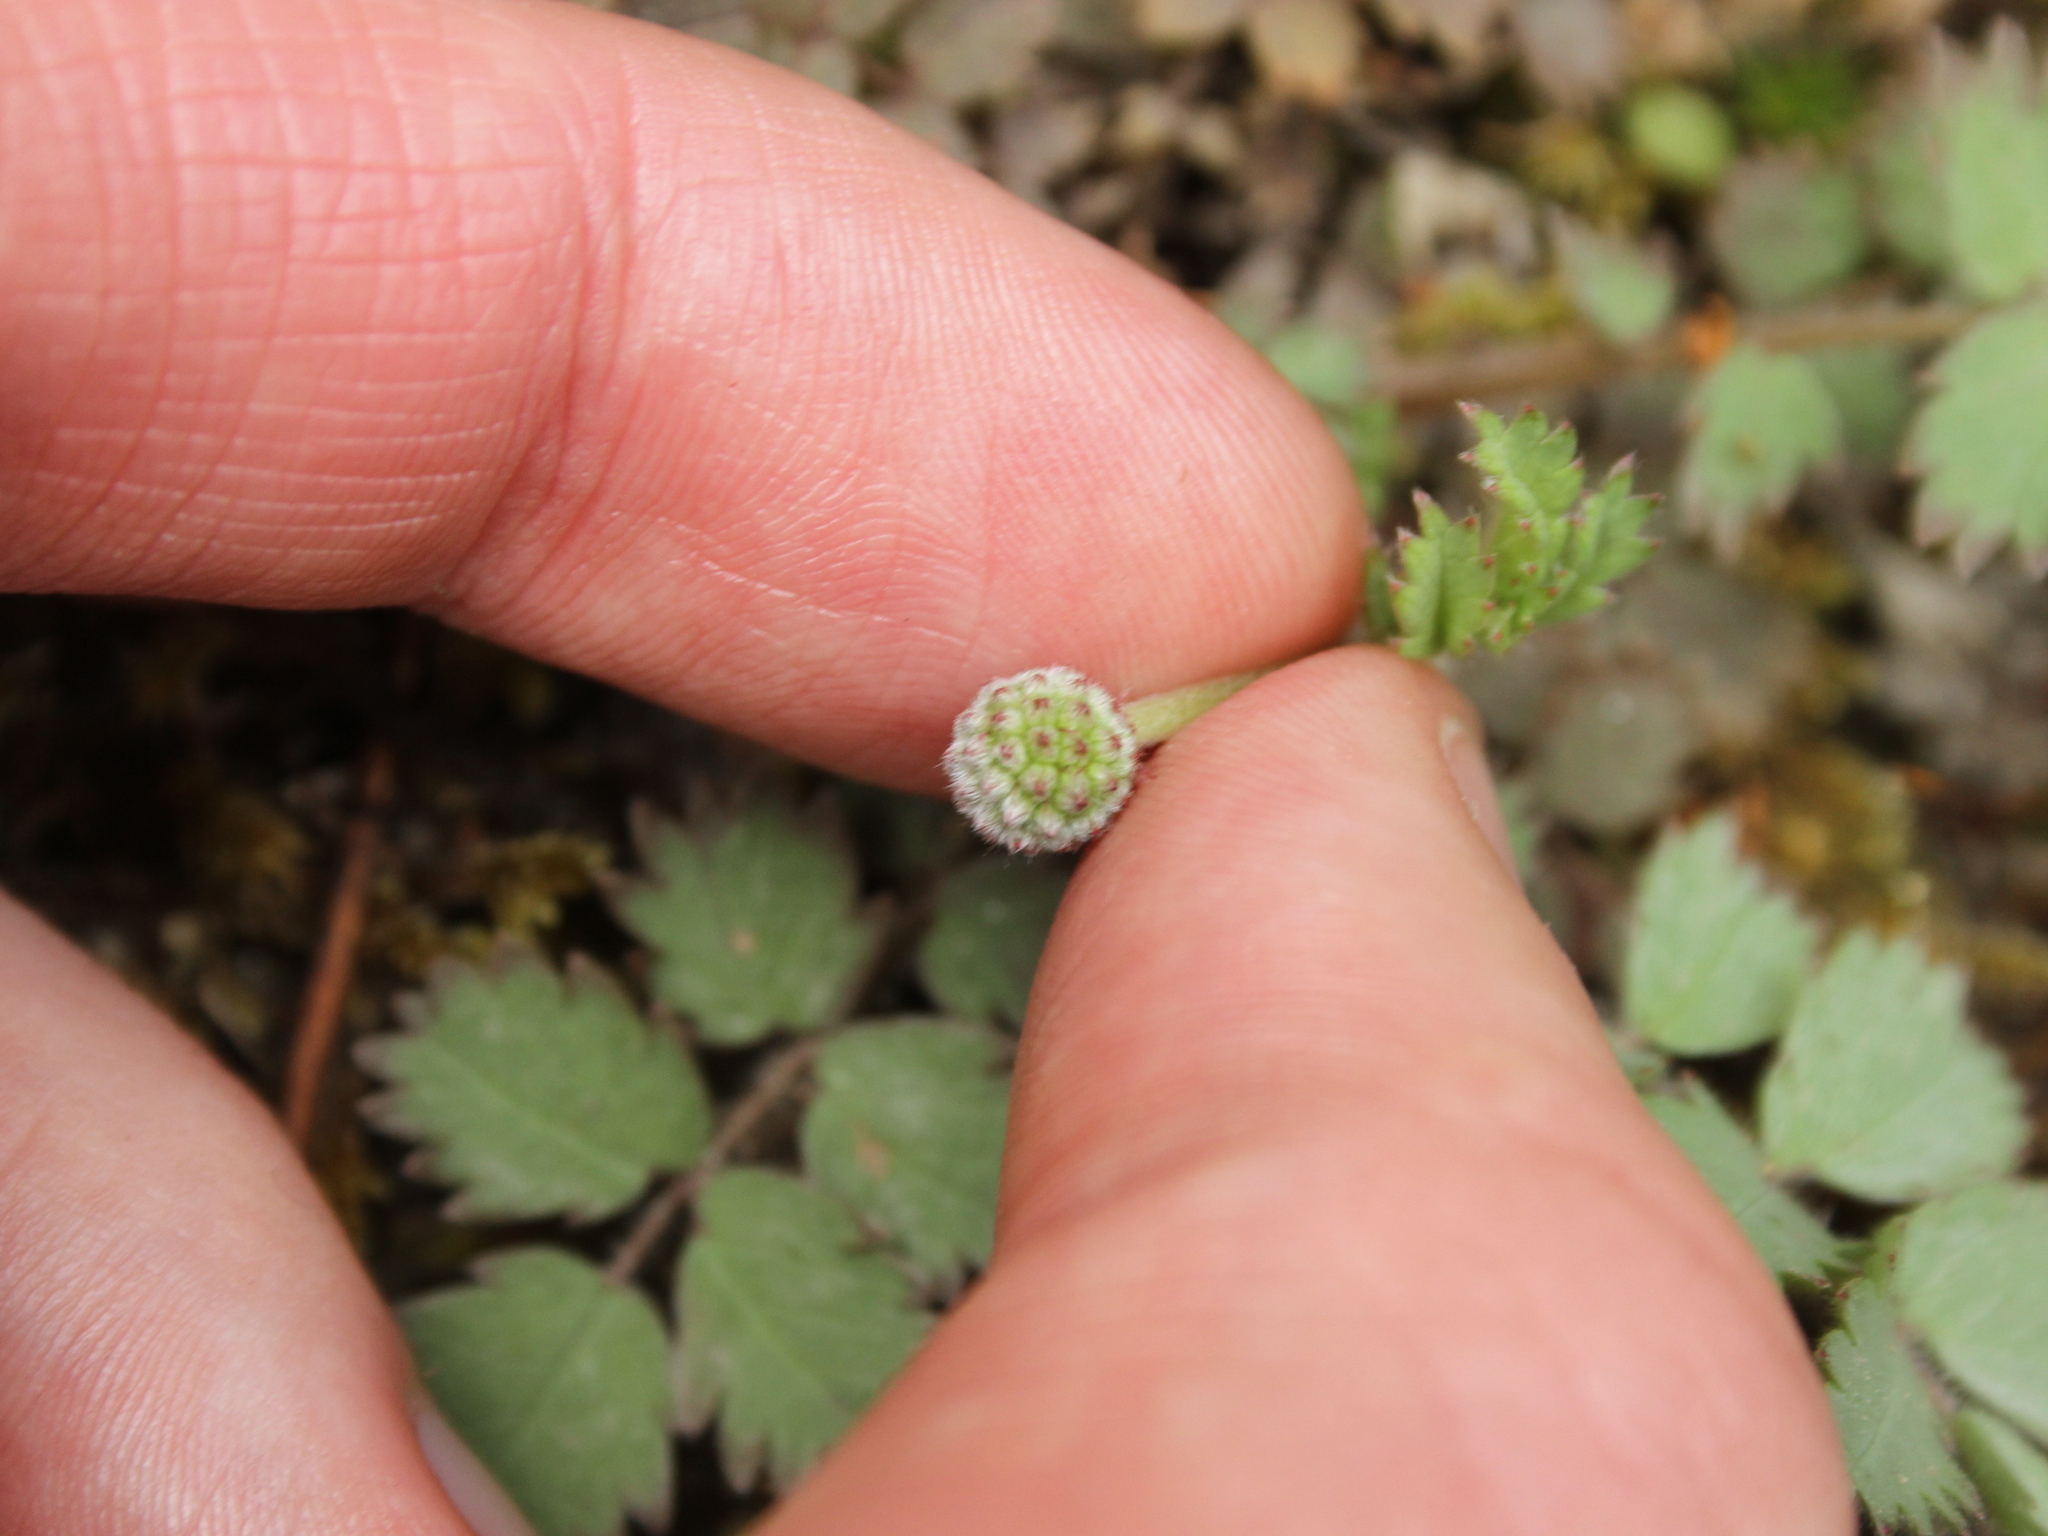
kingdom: Plantae
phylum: Tracheophyta
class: Magnoliopsida
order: Rosales
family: Rosaceae
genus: Acaena
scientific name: Acaena caesiiglauca
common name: Glaucous pirri-pirri-bur
